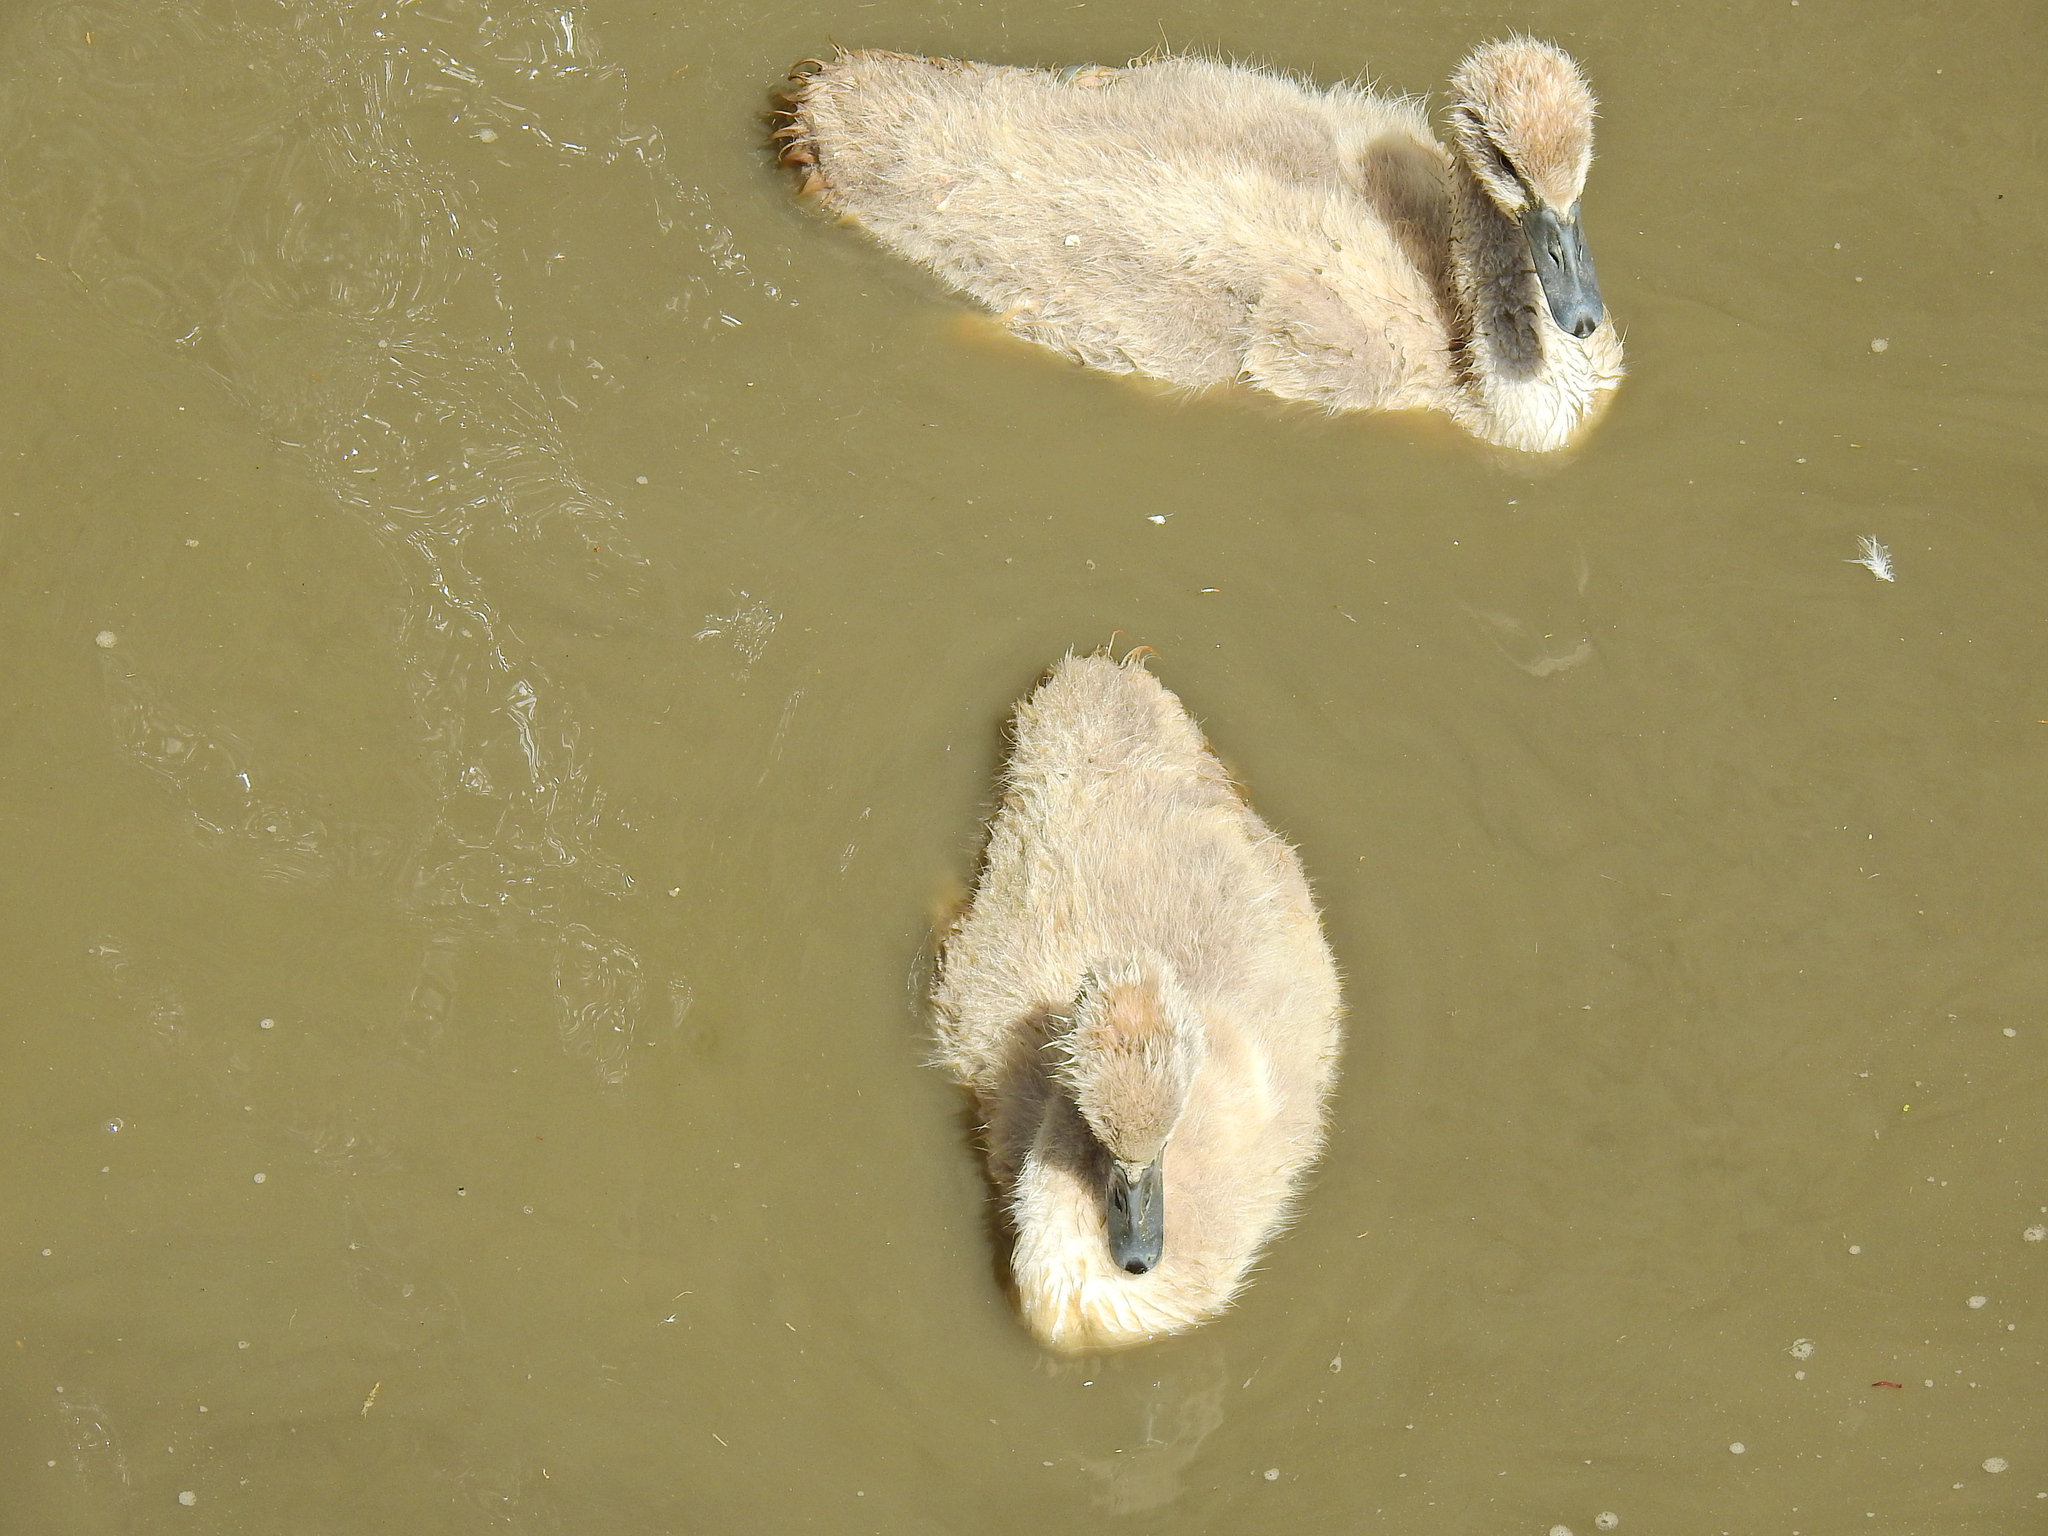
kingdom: Animalia
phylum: Chordata
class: Aves
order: Anseriformes
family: Anatidae
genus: Cygnus
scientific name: Cygnus olor
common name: Mute swan
